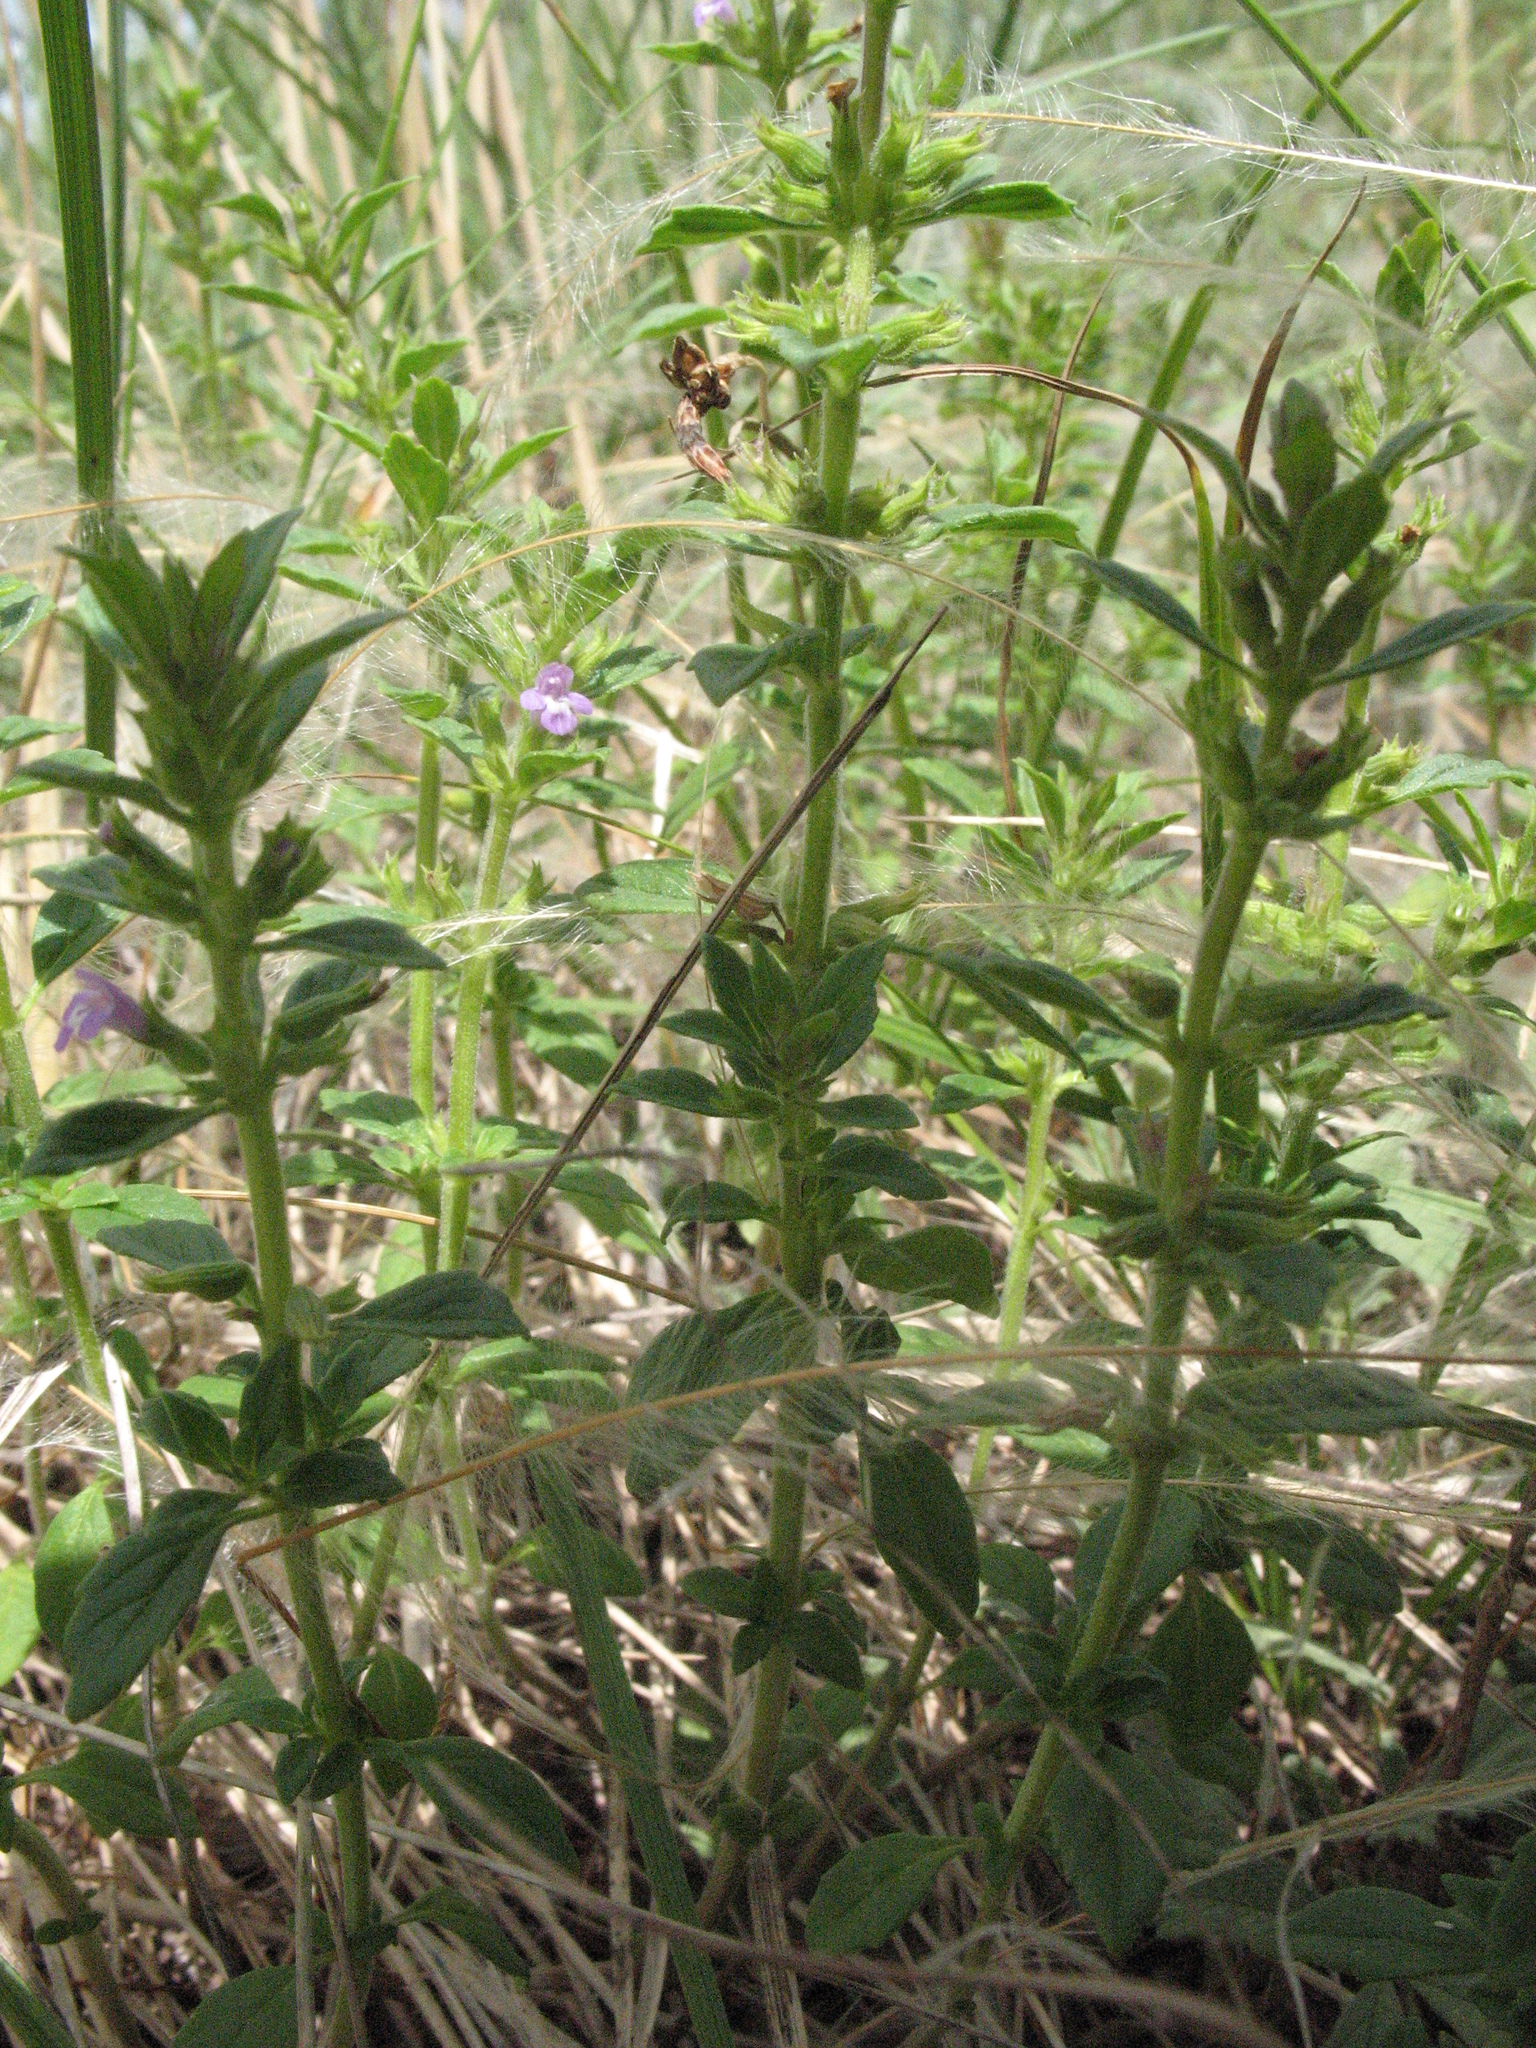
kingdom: Plantae
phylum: Tracheophyta
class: Magnoliopsida
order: Lamiales
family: Lamiaceae
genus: Clinopodium
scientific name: Clinopodium acinos
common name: Basil thyme
